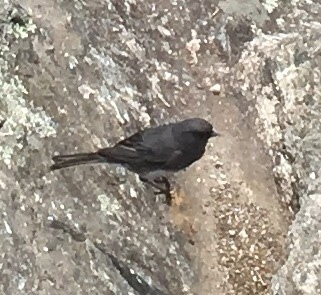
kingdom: Animalia
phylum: Chordata
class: Aves
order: Passeriformes
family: Passerellidae
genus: Junco
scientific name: Junco hyemalis
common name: Dark-eyed junco
